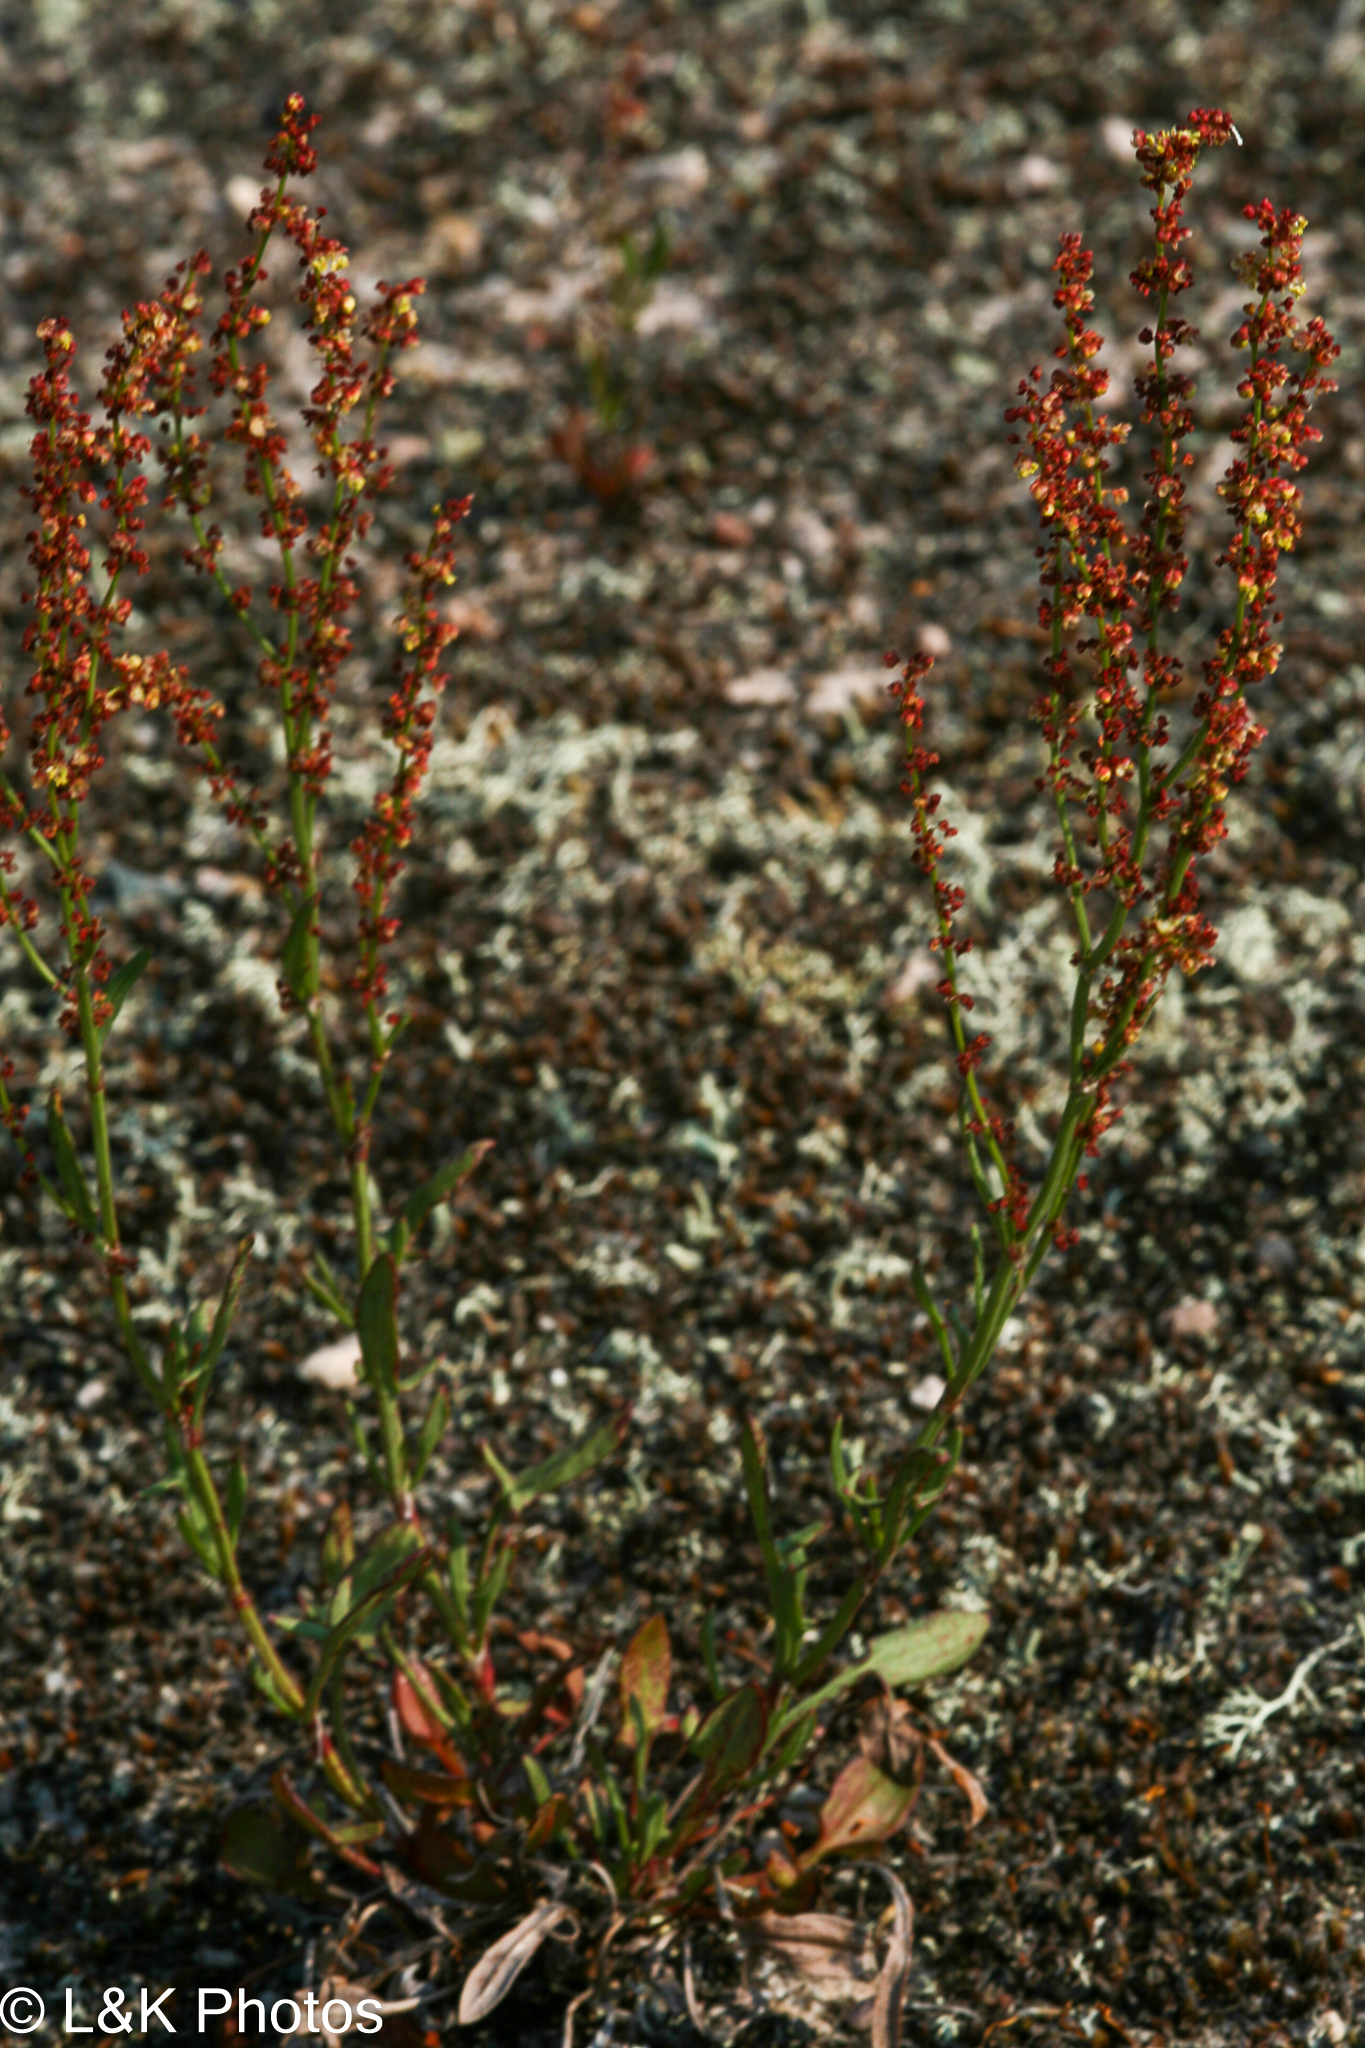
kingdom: Plantae
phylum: Tracheophyta
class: Magnoliopsida
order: Caryophyllales
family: Polygonaceae
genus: Rumex
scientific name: Rumex acetosella
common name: Common sheep sorrel
